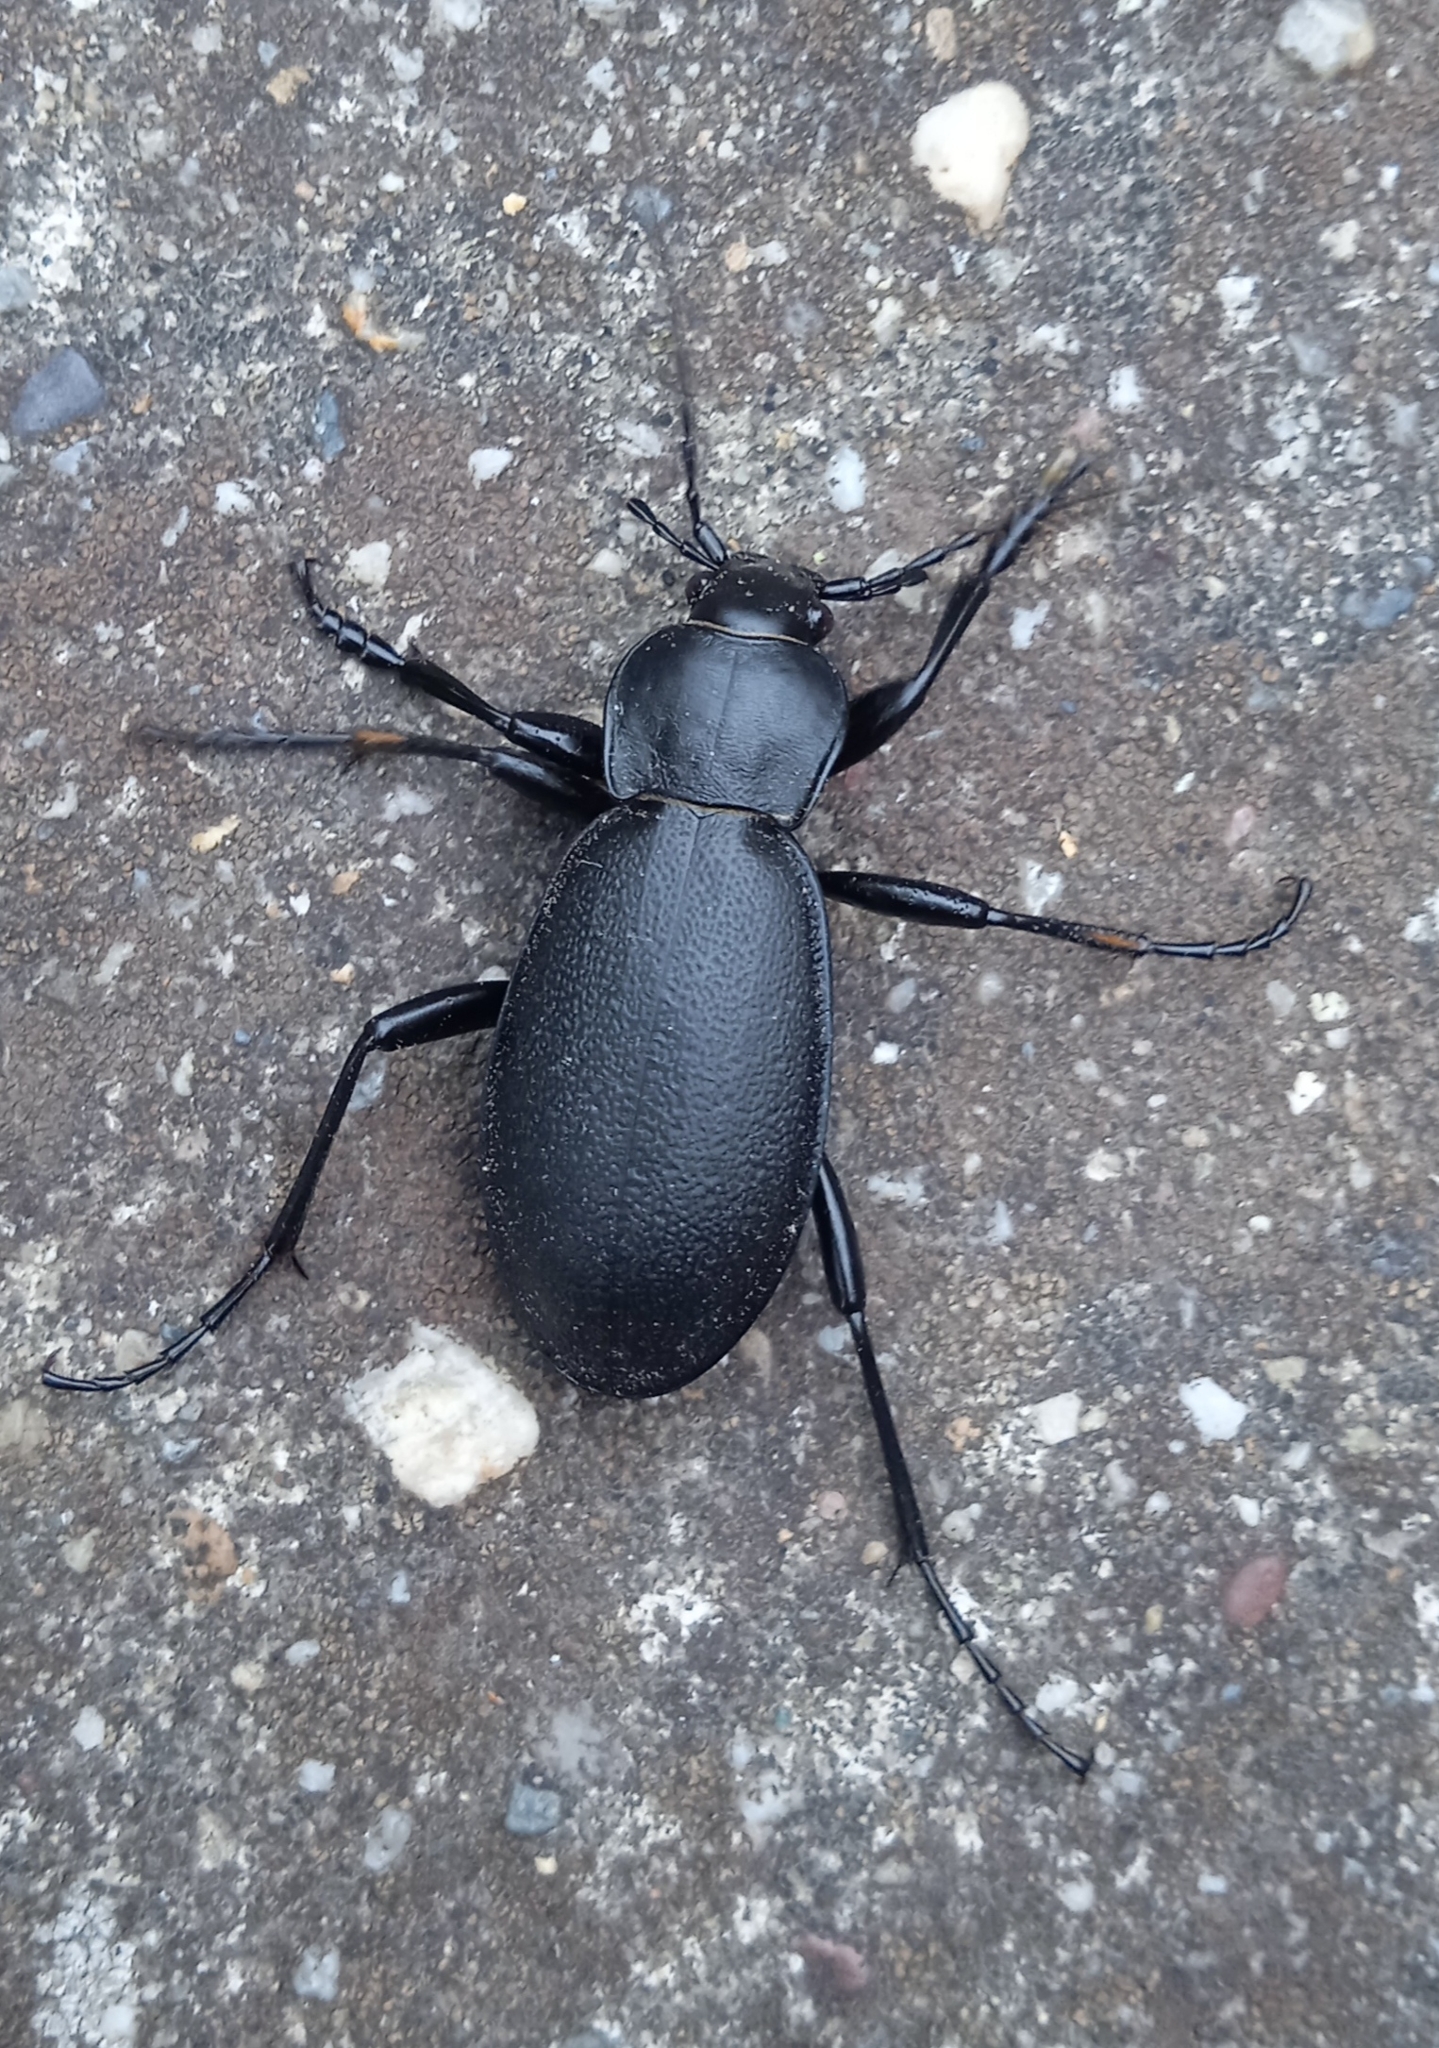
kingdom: Animalia
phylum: Arthropoda
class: Insecta
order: Coleoptera
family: Carabidae
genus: Carabus
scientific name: Carabus coriaceus
